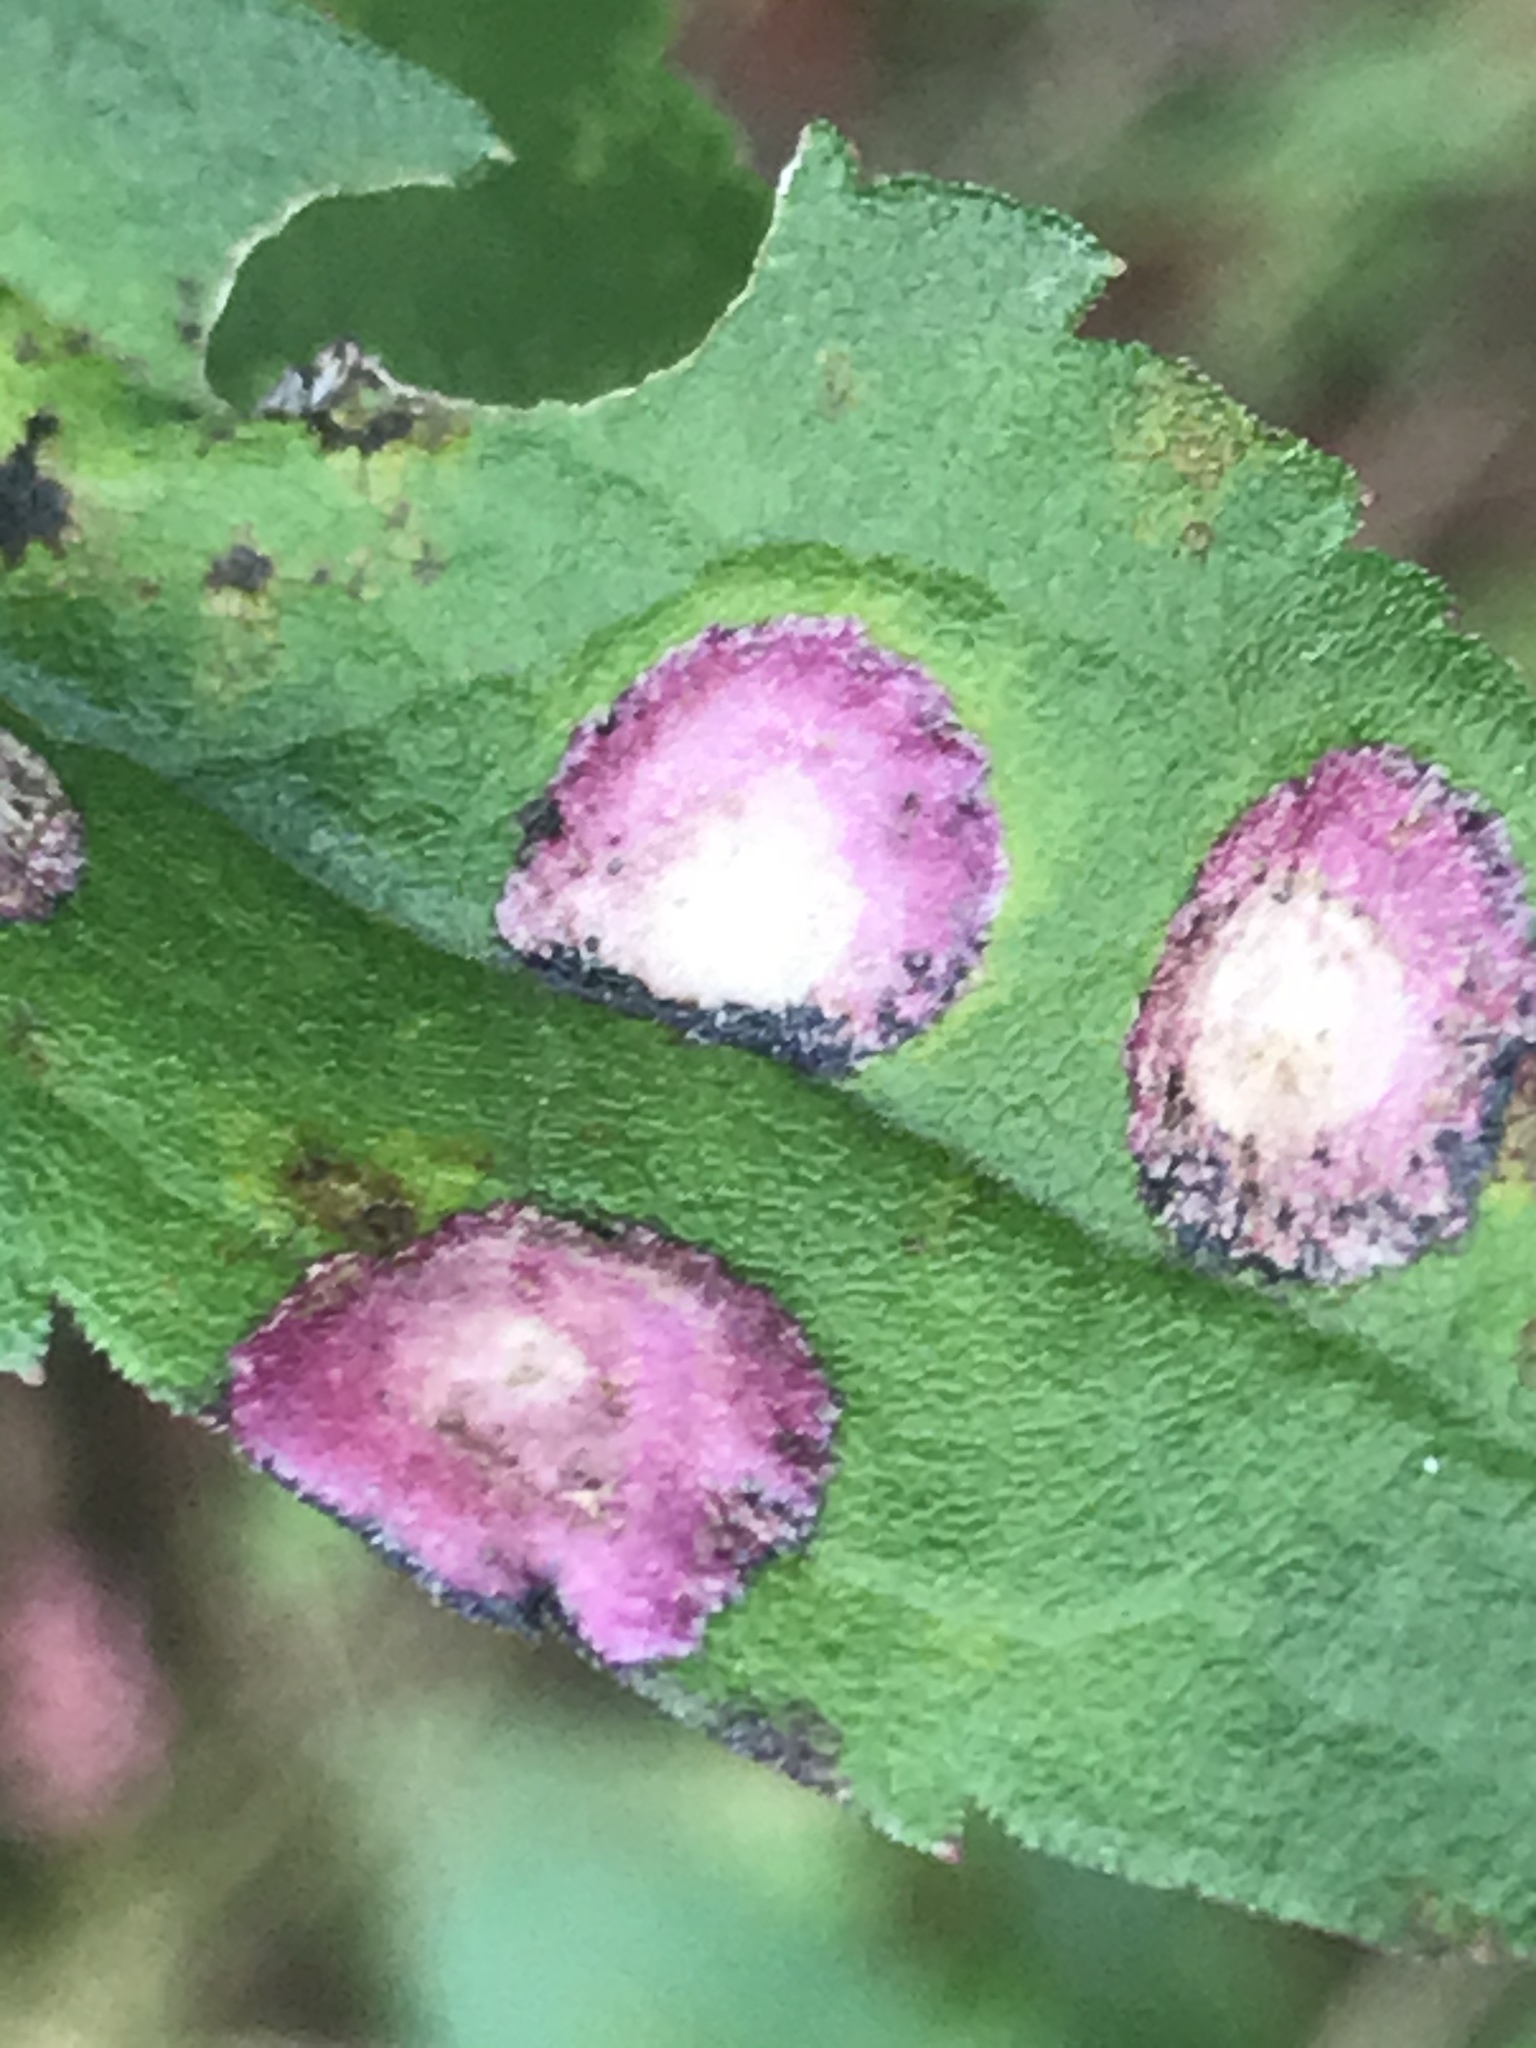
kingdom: Animalia
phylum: Arthropoda
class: Insecta
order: Diptera
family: Cecidomyiidae
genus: Asteromyia
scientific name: Asteromyia carbonifera
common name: Carbonifera goldenrod gall midge
